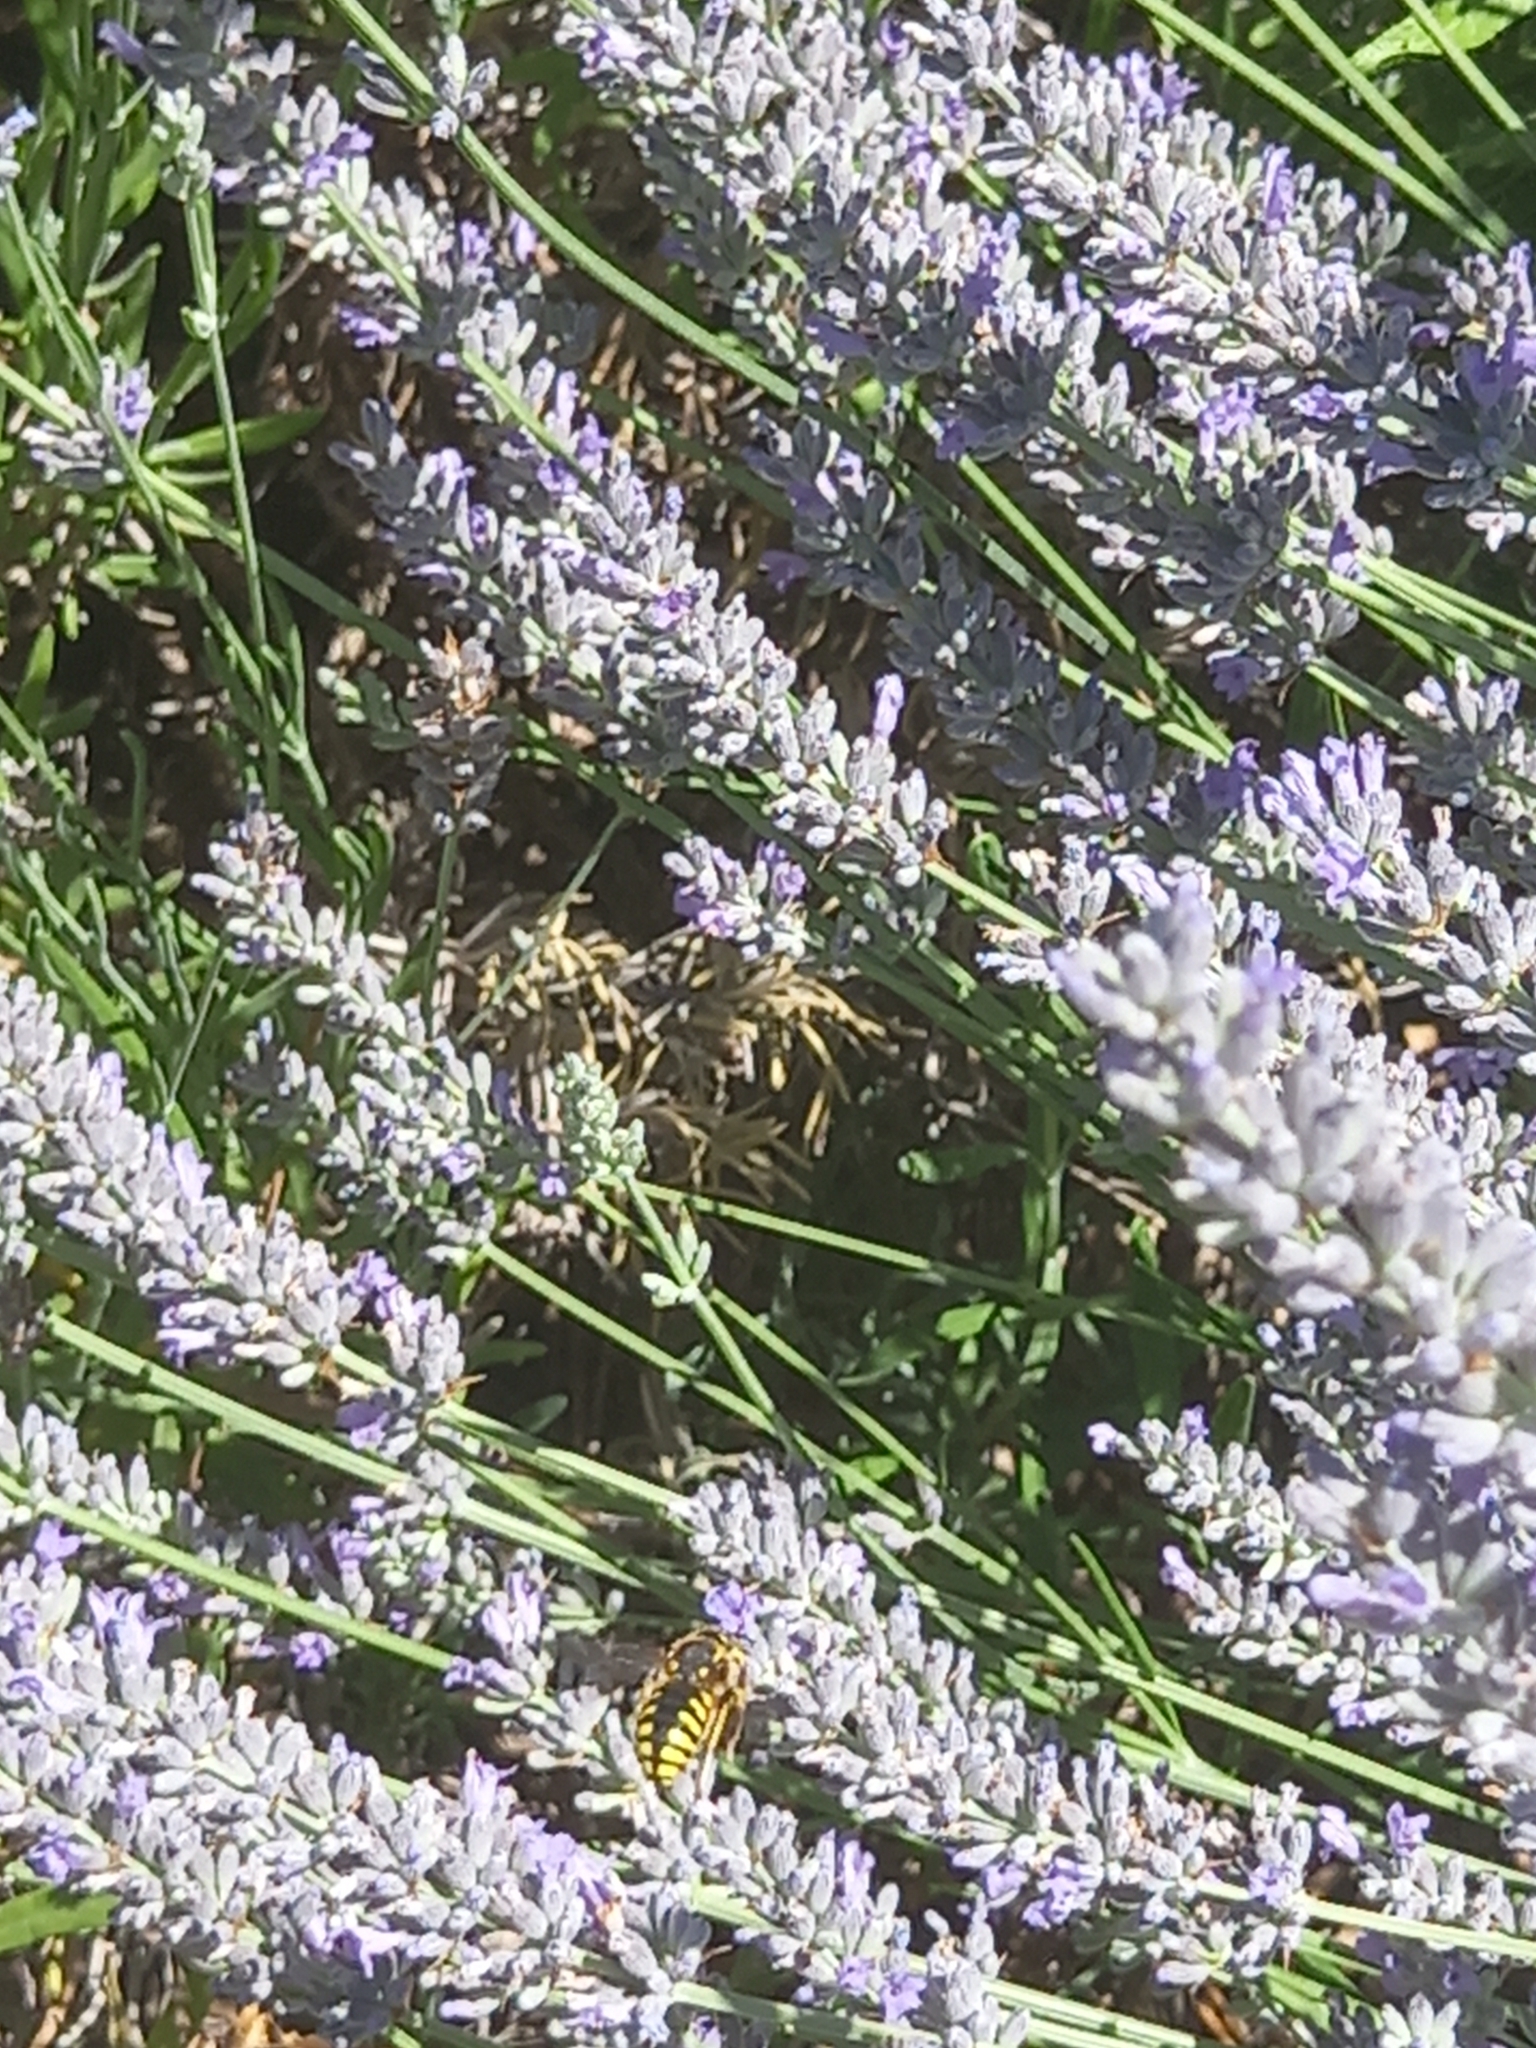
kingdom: Animalia
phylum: Arthropoda
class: Insecta
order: Hymenoptera
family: Megachilidae
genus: Anthidium
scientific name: Anthidium florentinum
